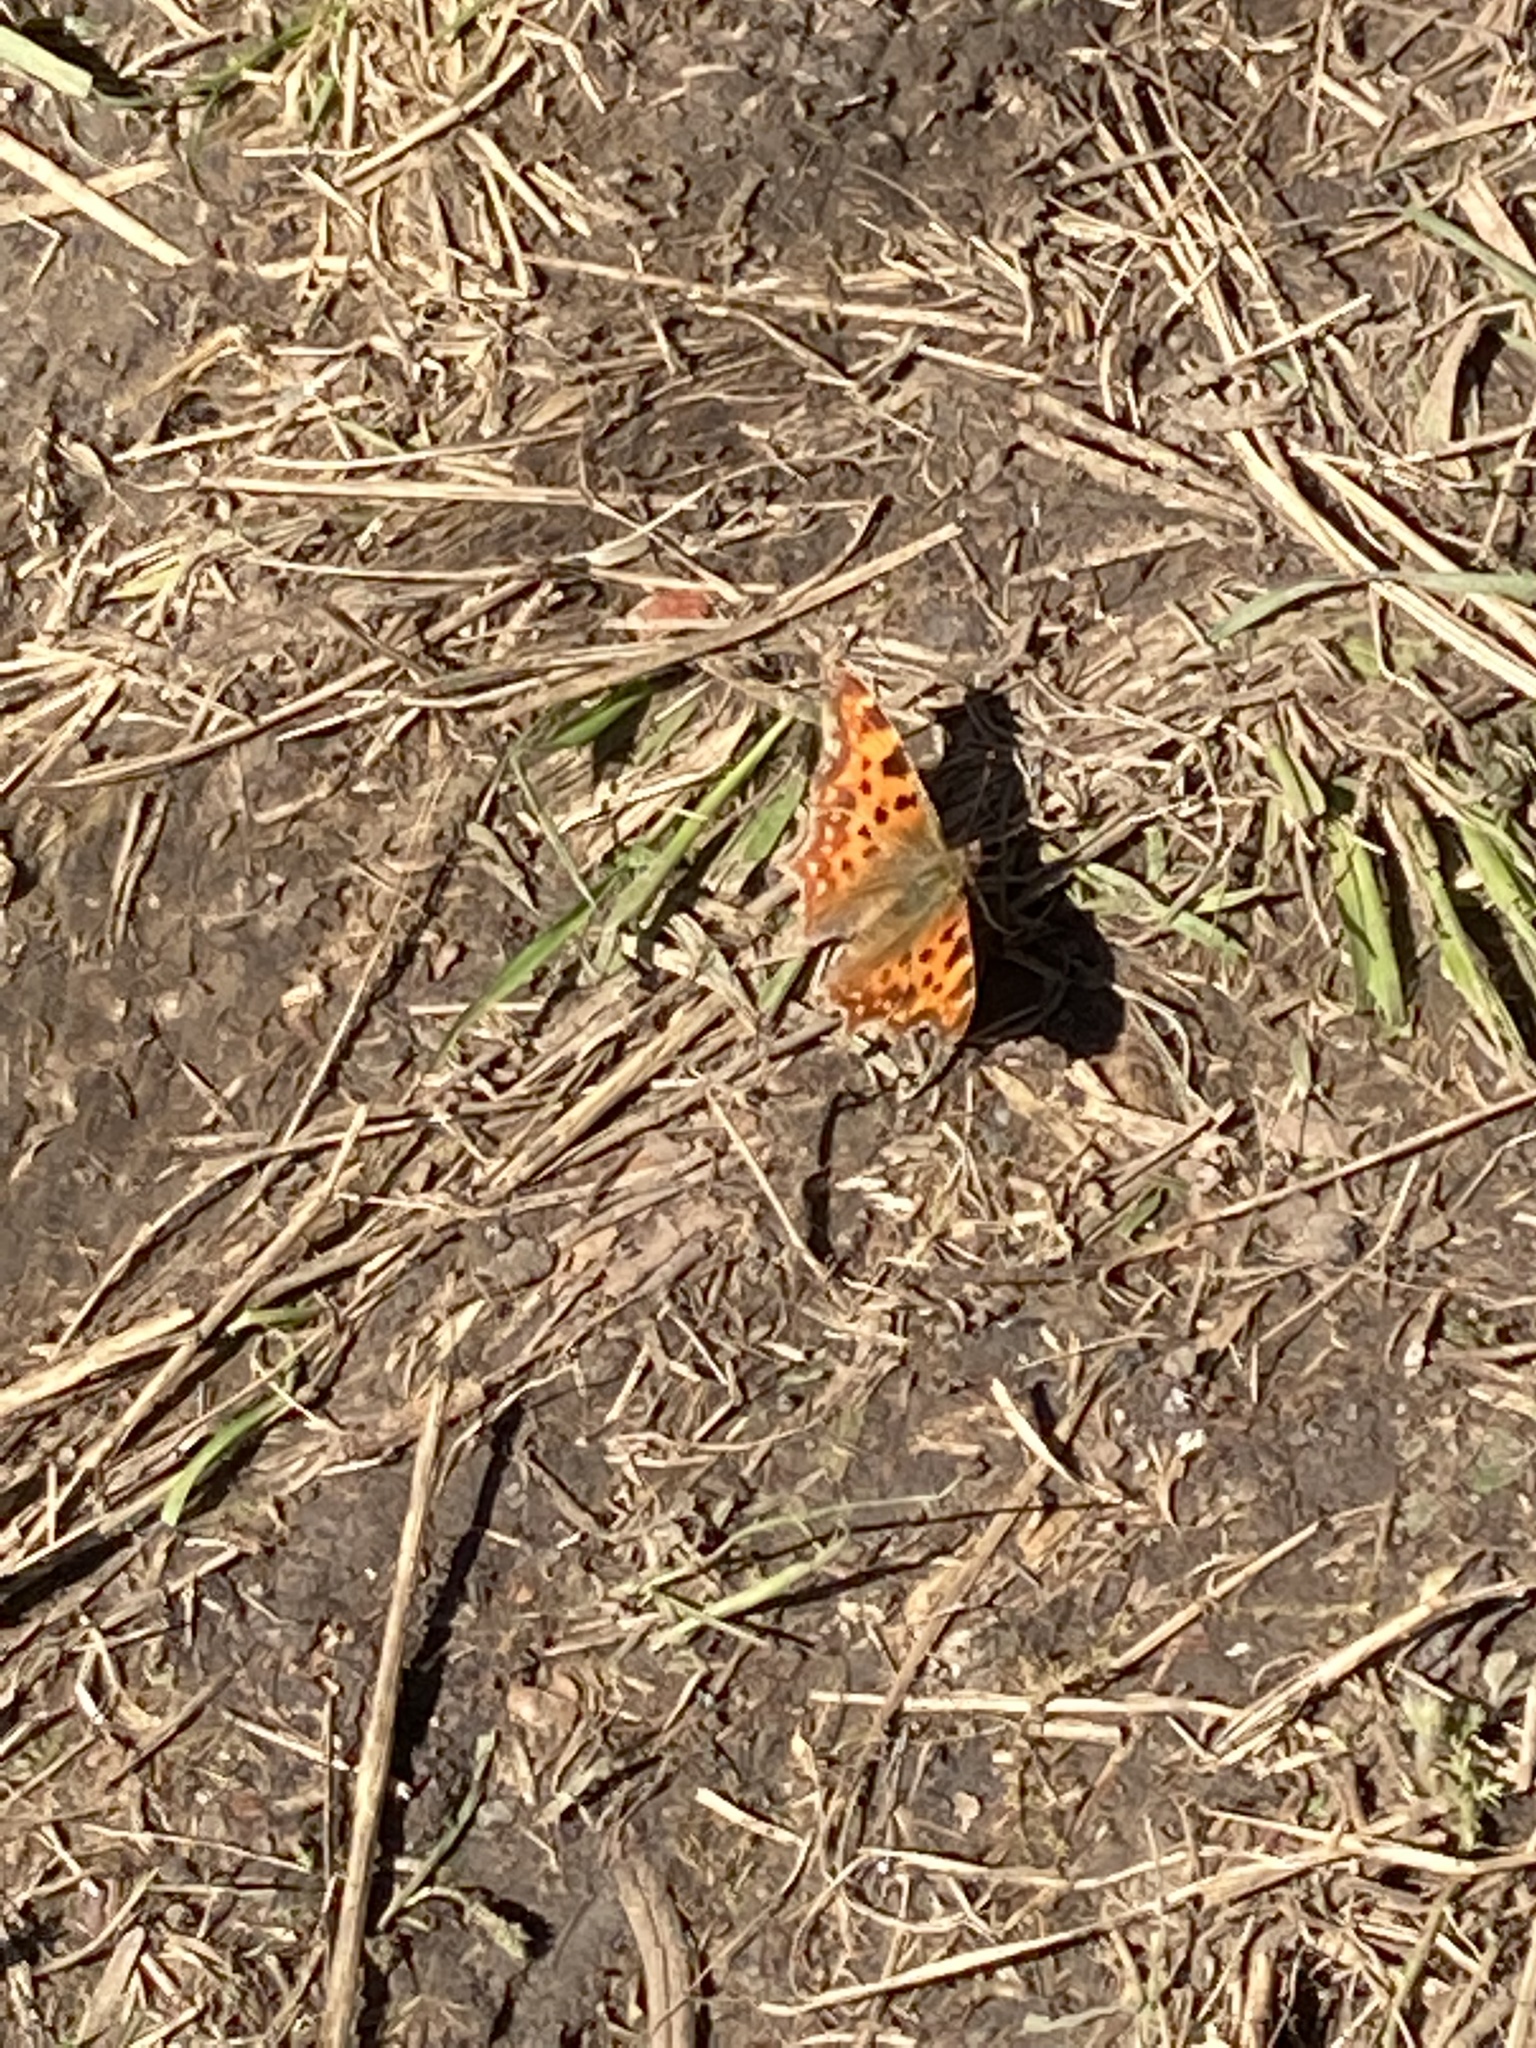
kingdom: Animalia
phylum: Arthropoda
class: Insecta
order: Lepidoptera
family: Nymphalidae
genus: Polygonia
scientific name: Polygonia c-album
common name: Comma
